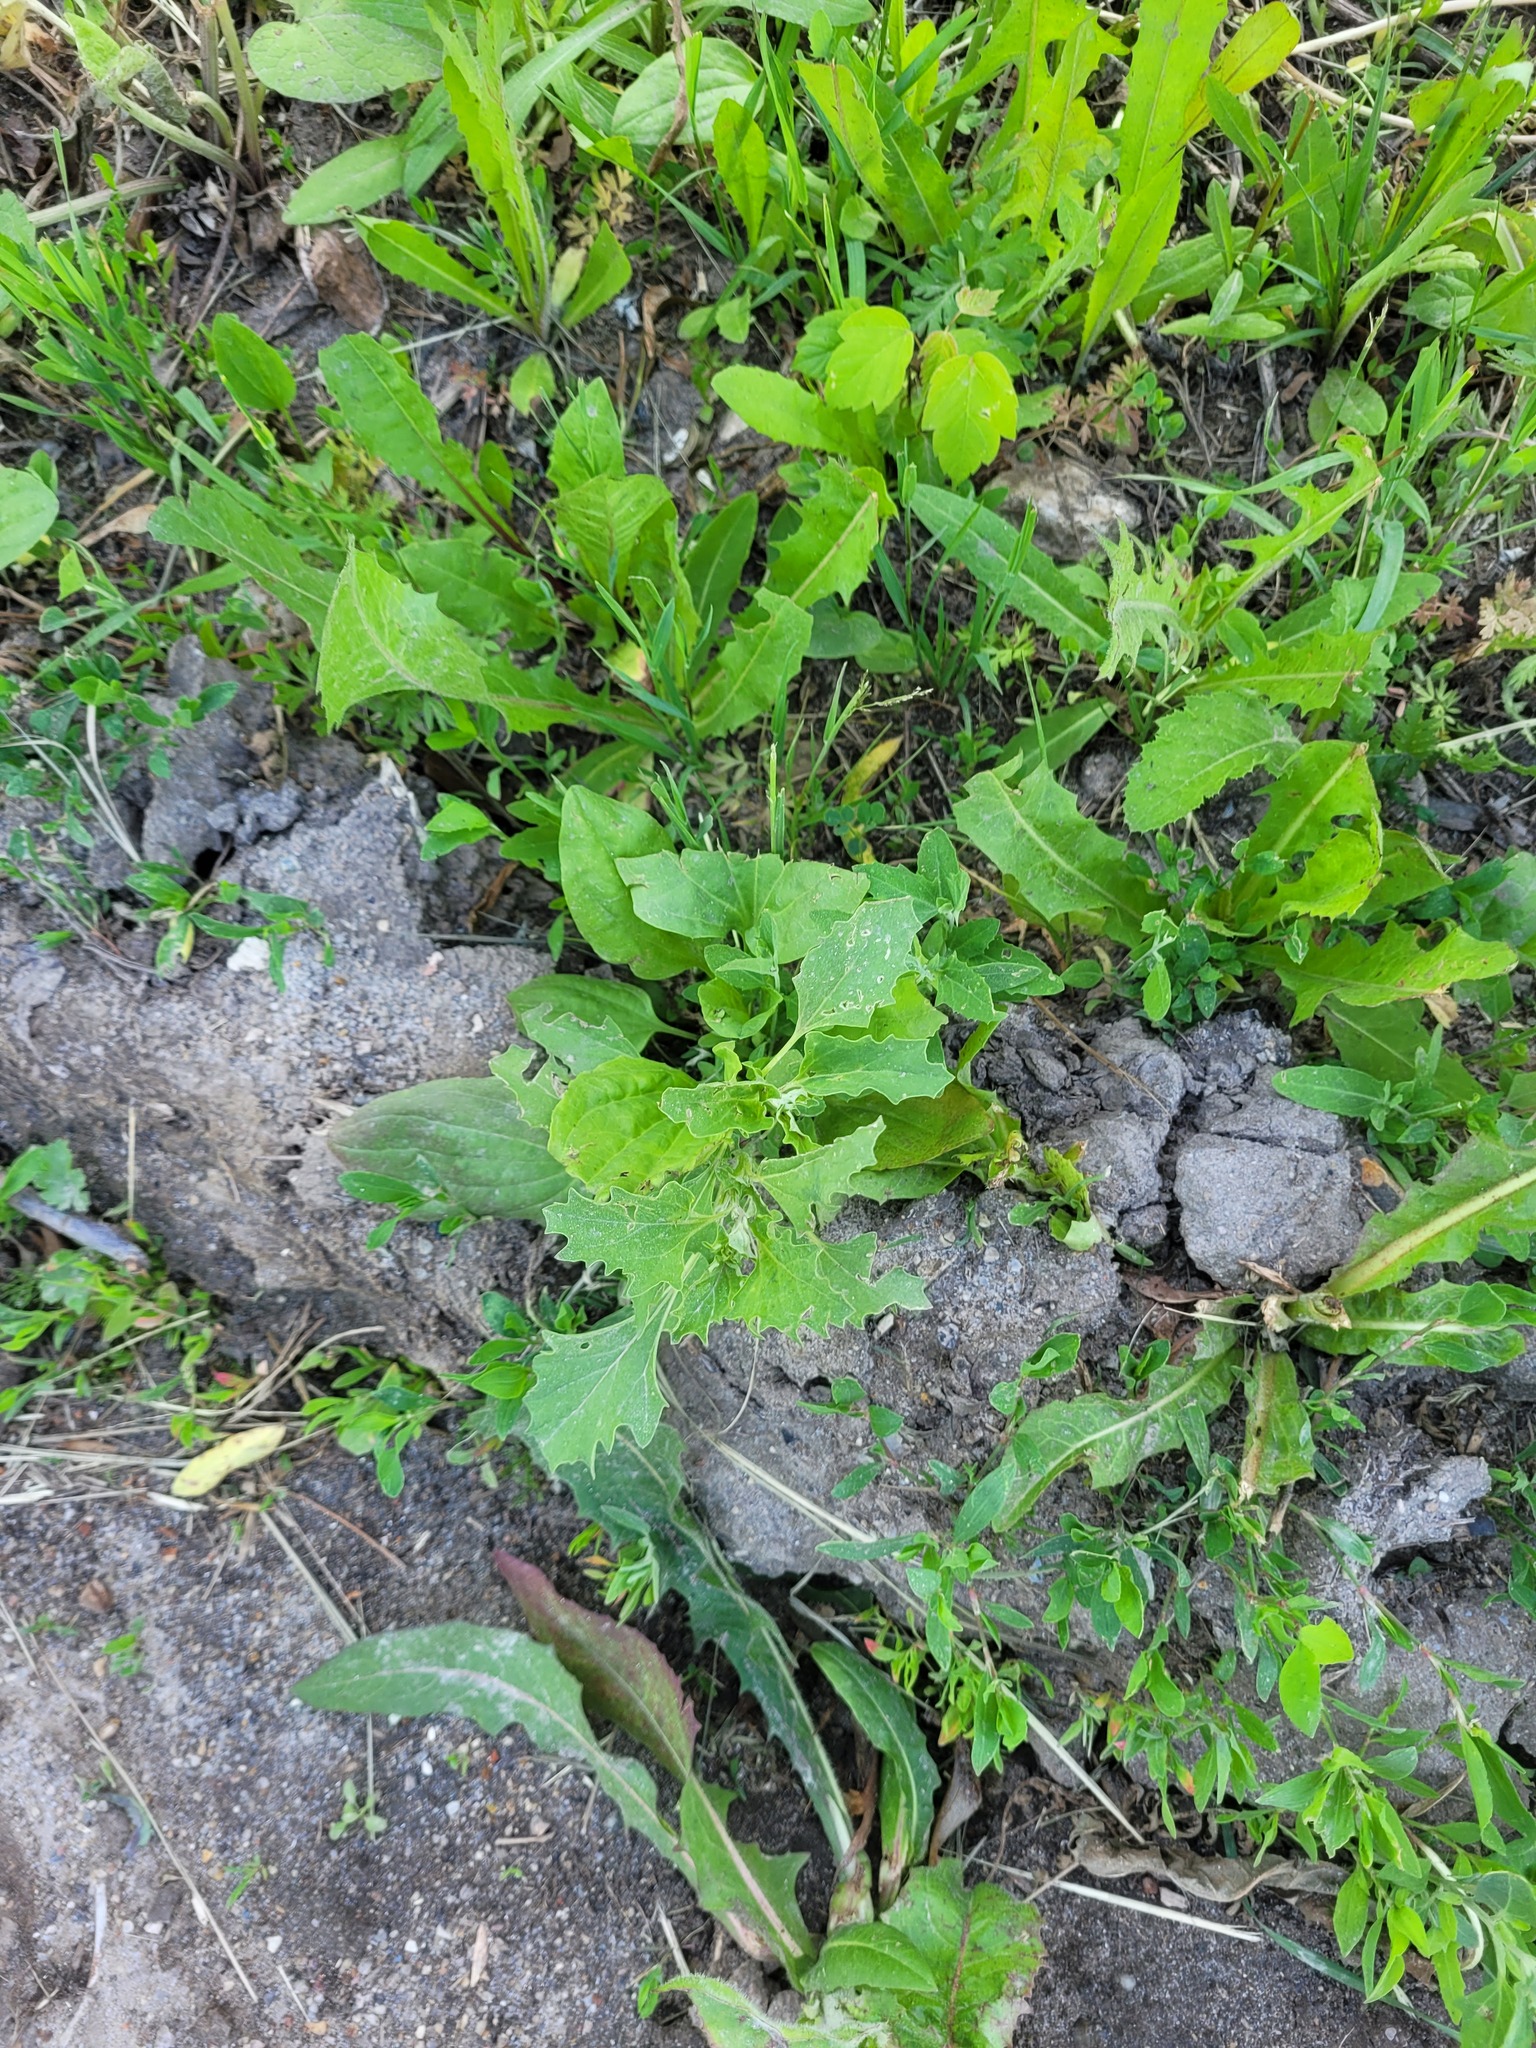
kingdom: Plantae
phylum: Tracheophyta
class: Magnoliopsida
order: Caryophyllales
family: Amaranthaceae
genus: Atriplex
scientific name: Atriplex tatarica
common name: Tatarian orache
